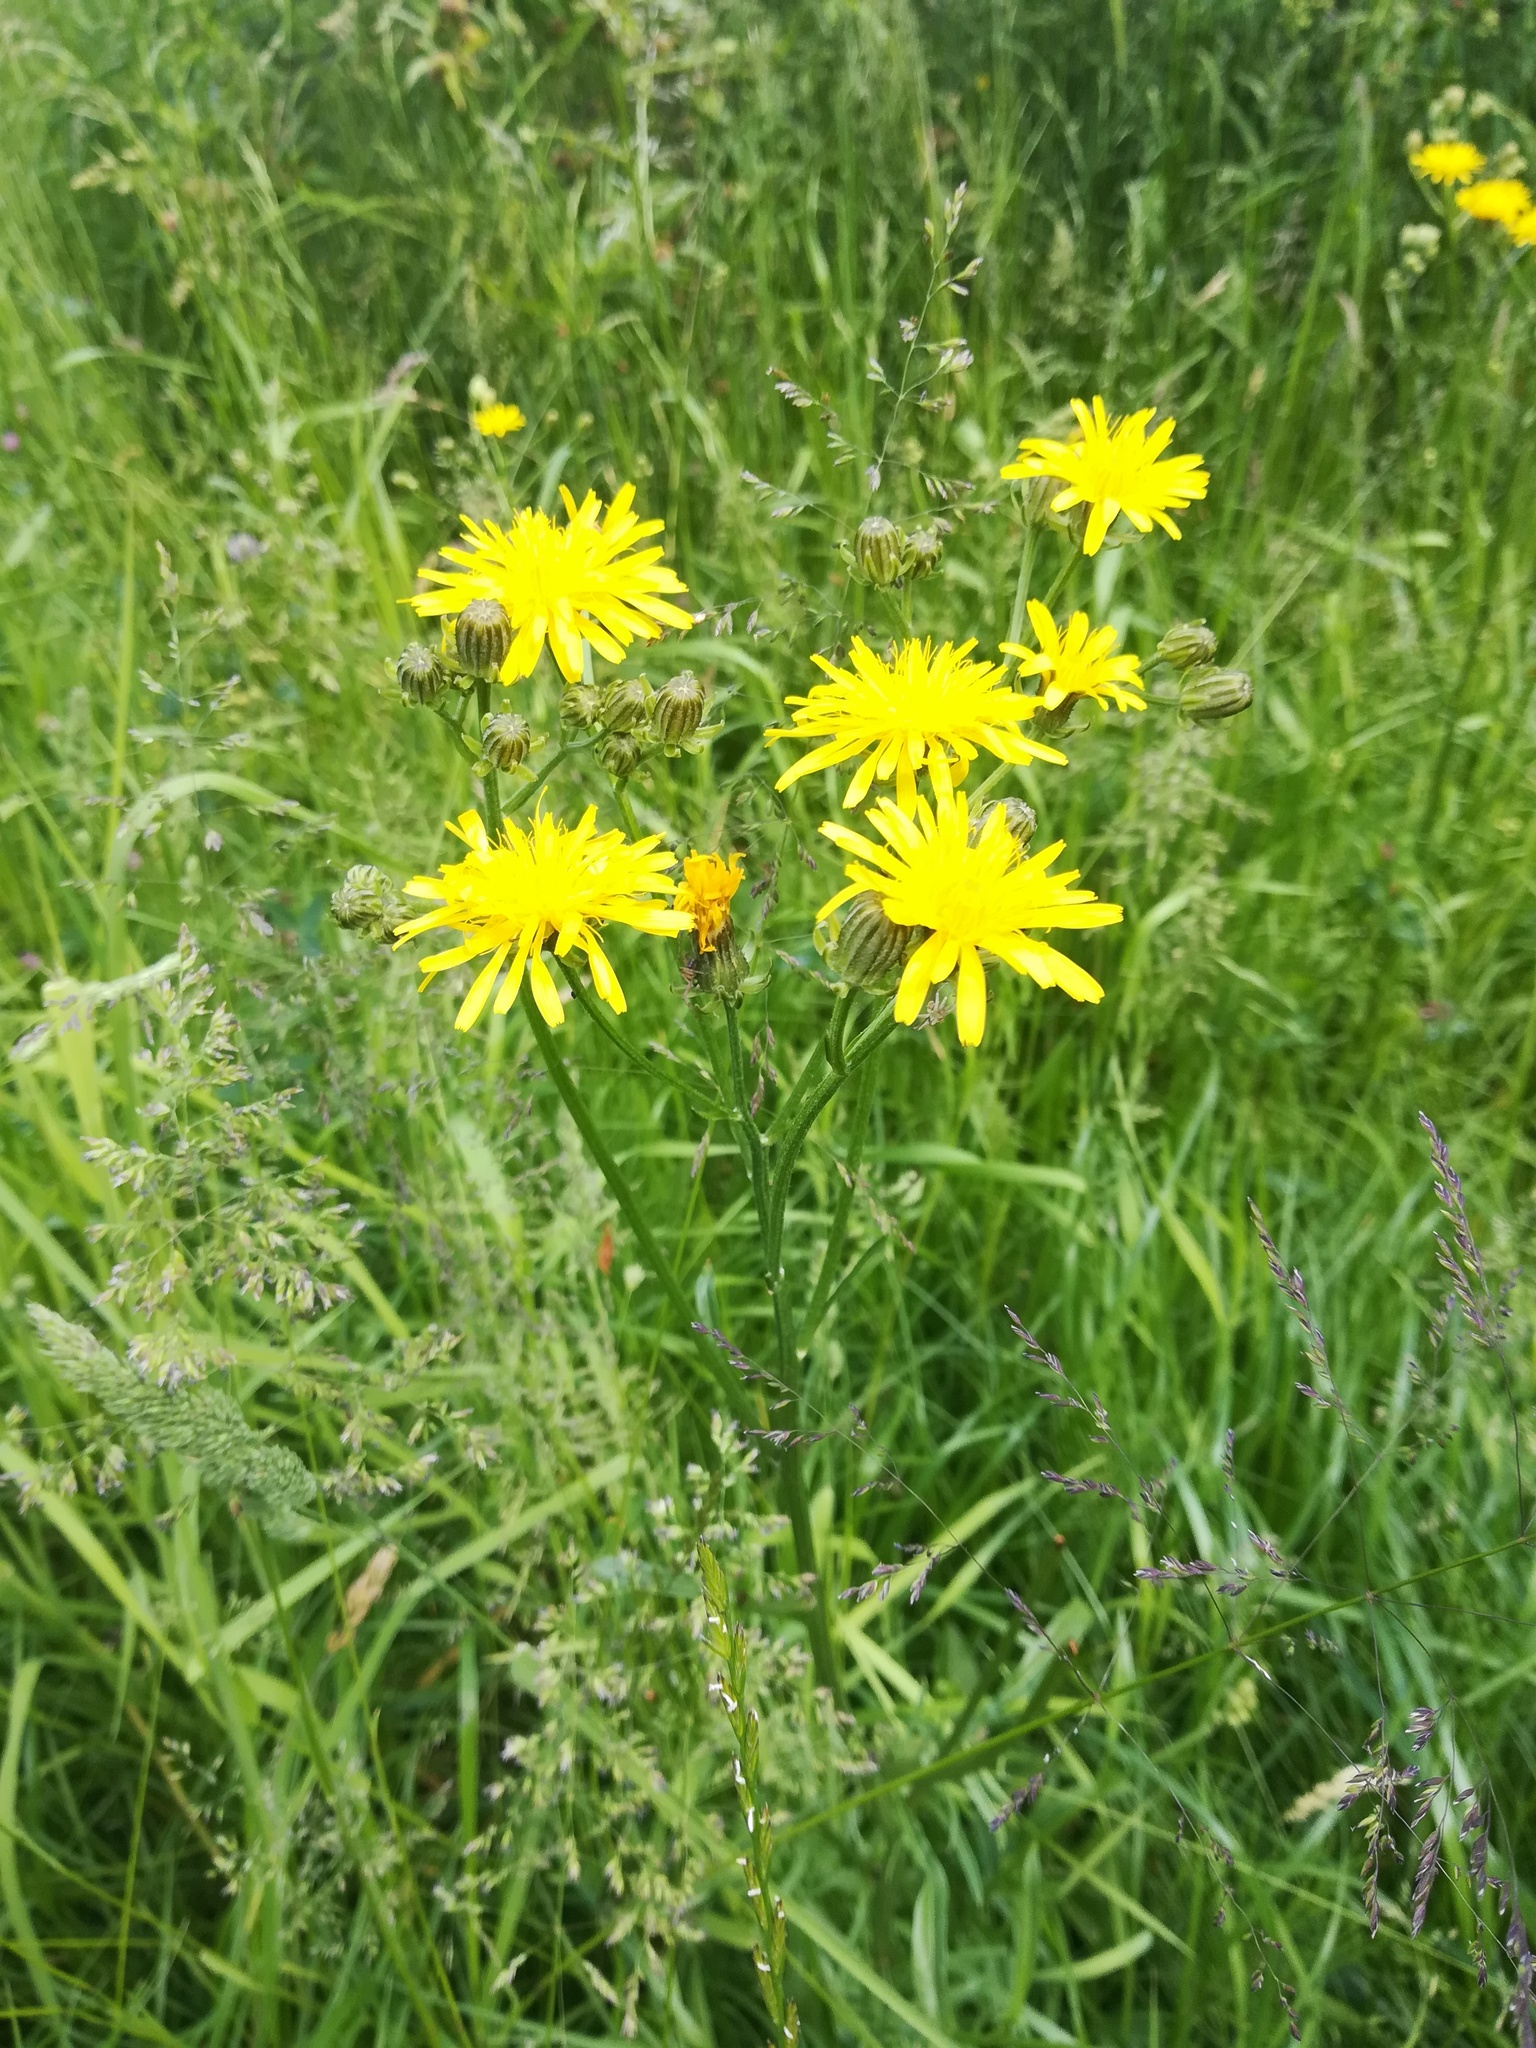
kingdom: Plantae
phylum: Tracheophyta
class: Magnoliopsida
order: Asterales
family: Asteraceae
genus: Crepis
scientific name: Crepis biennis
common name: Rough hawk's-beard
